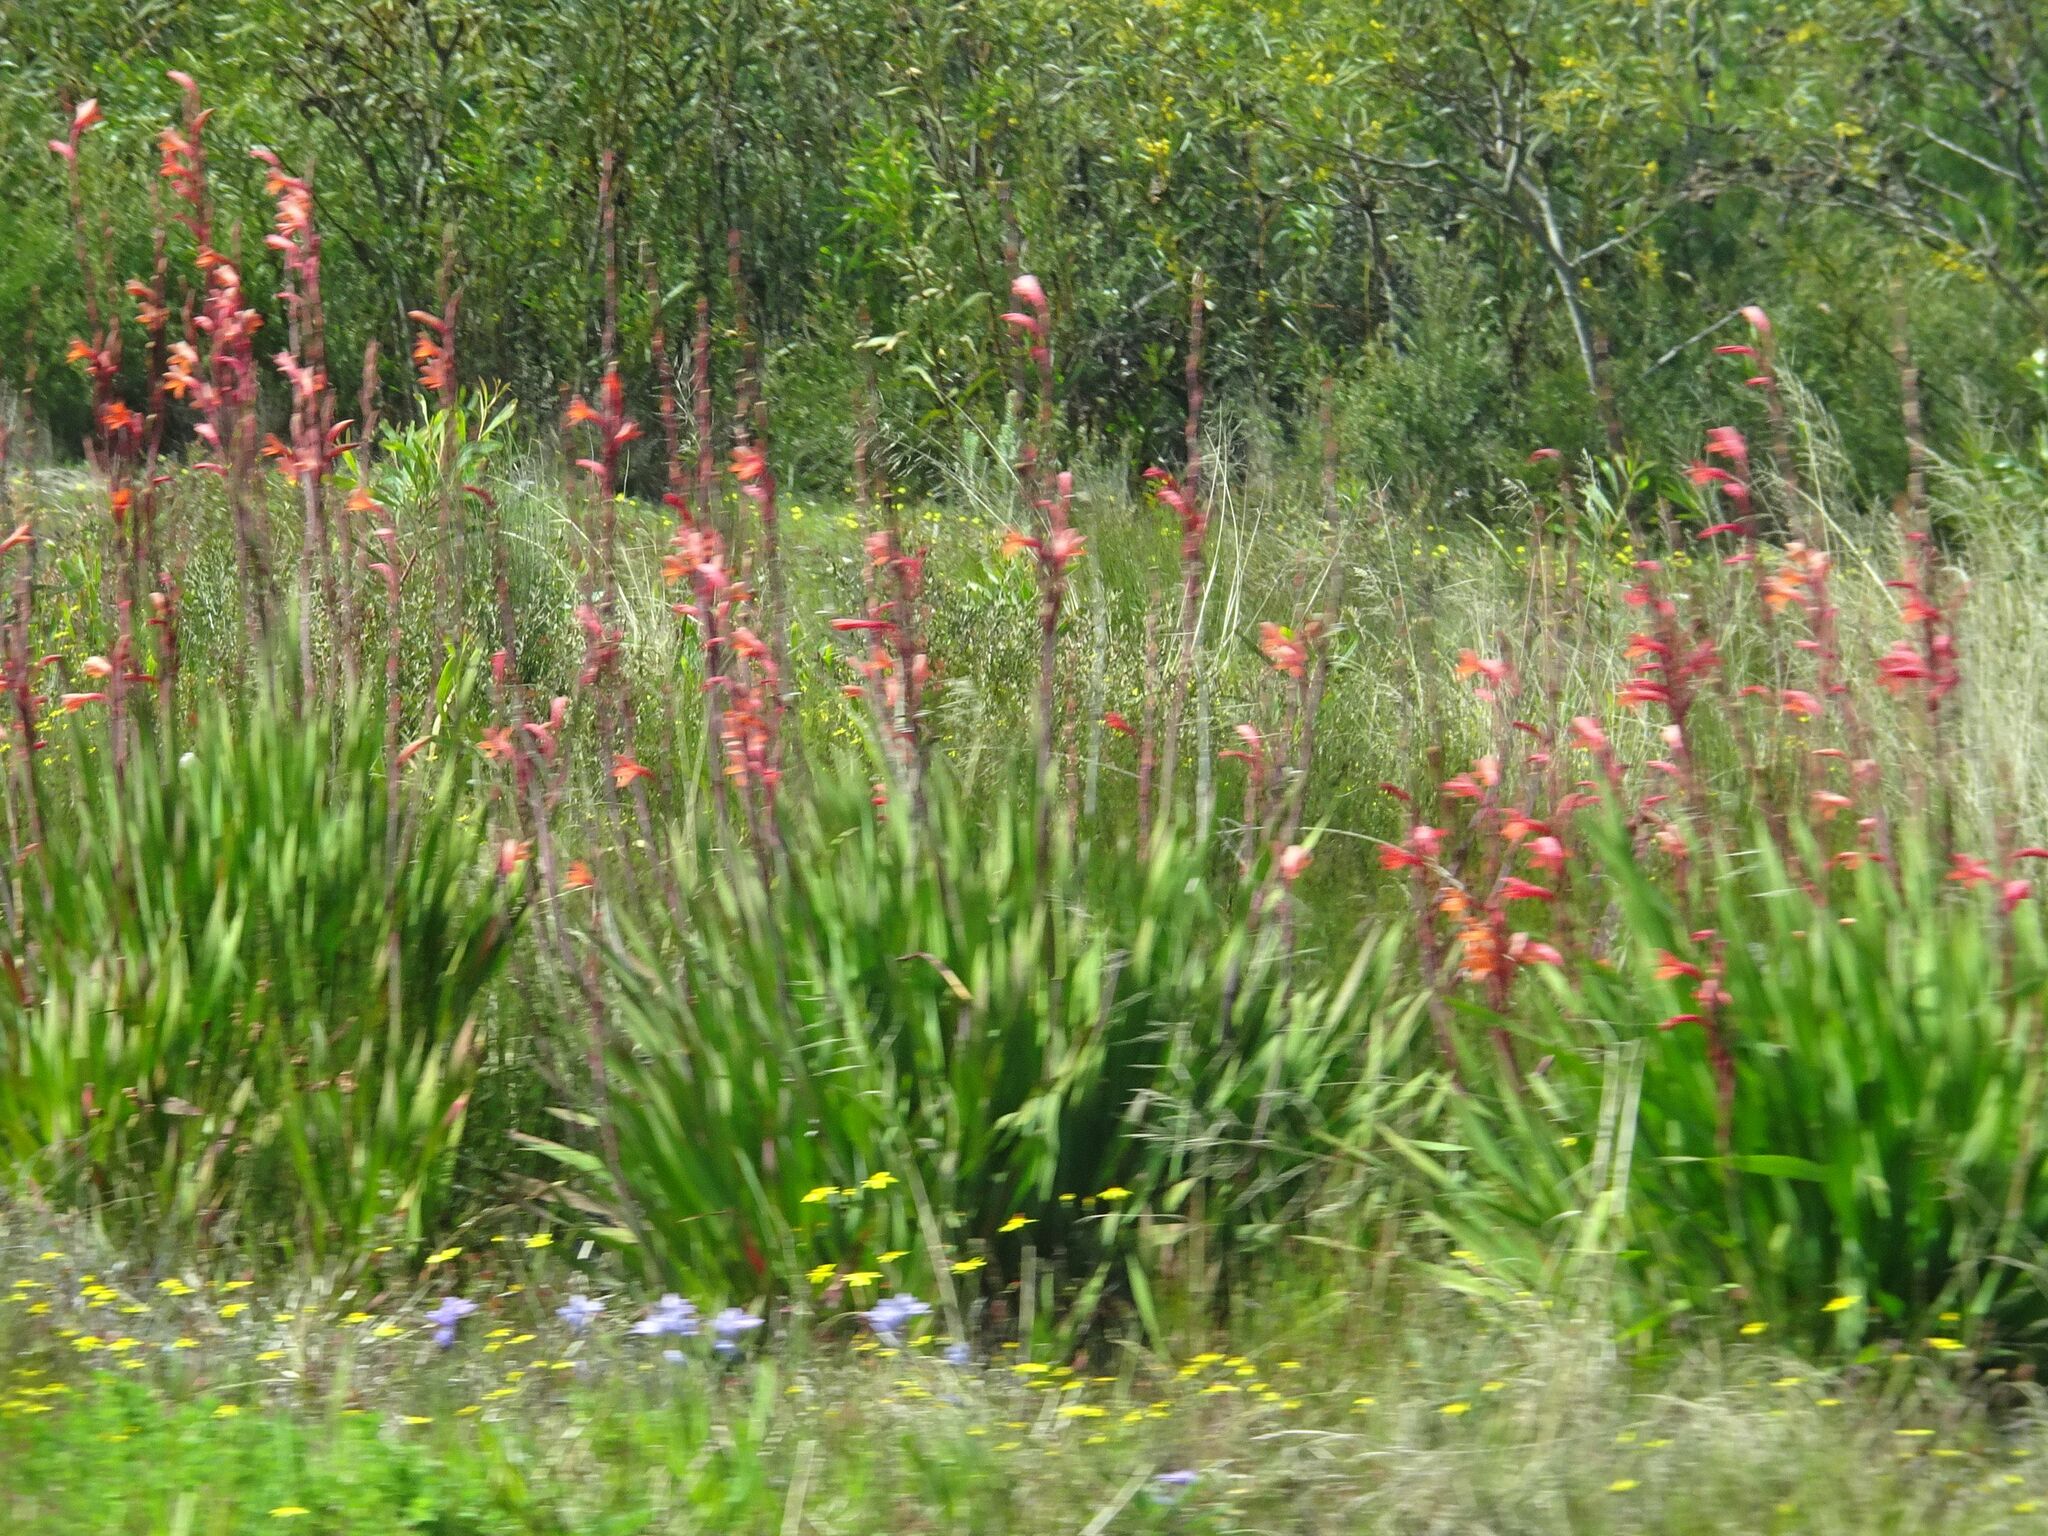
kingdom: Plantae
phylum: Tracheophyta
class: Liliopsida
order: Asparagales
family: Iridaceae
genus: Watsonia
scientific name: Watsonia meriana
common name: Bulbil bugle-lily
